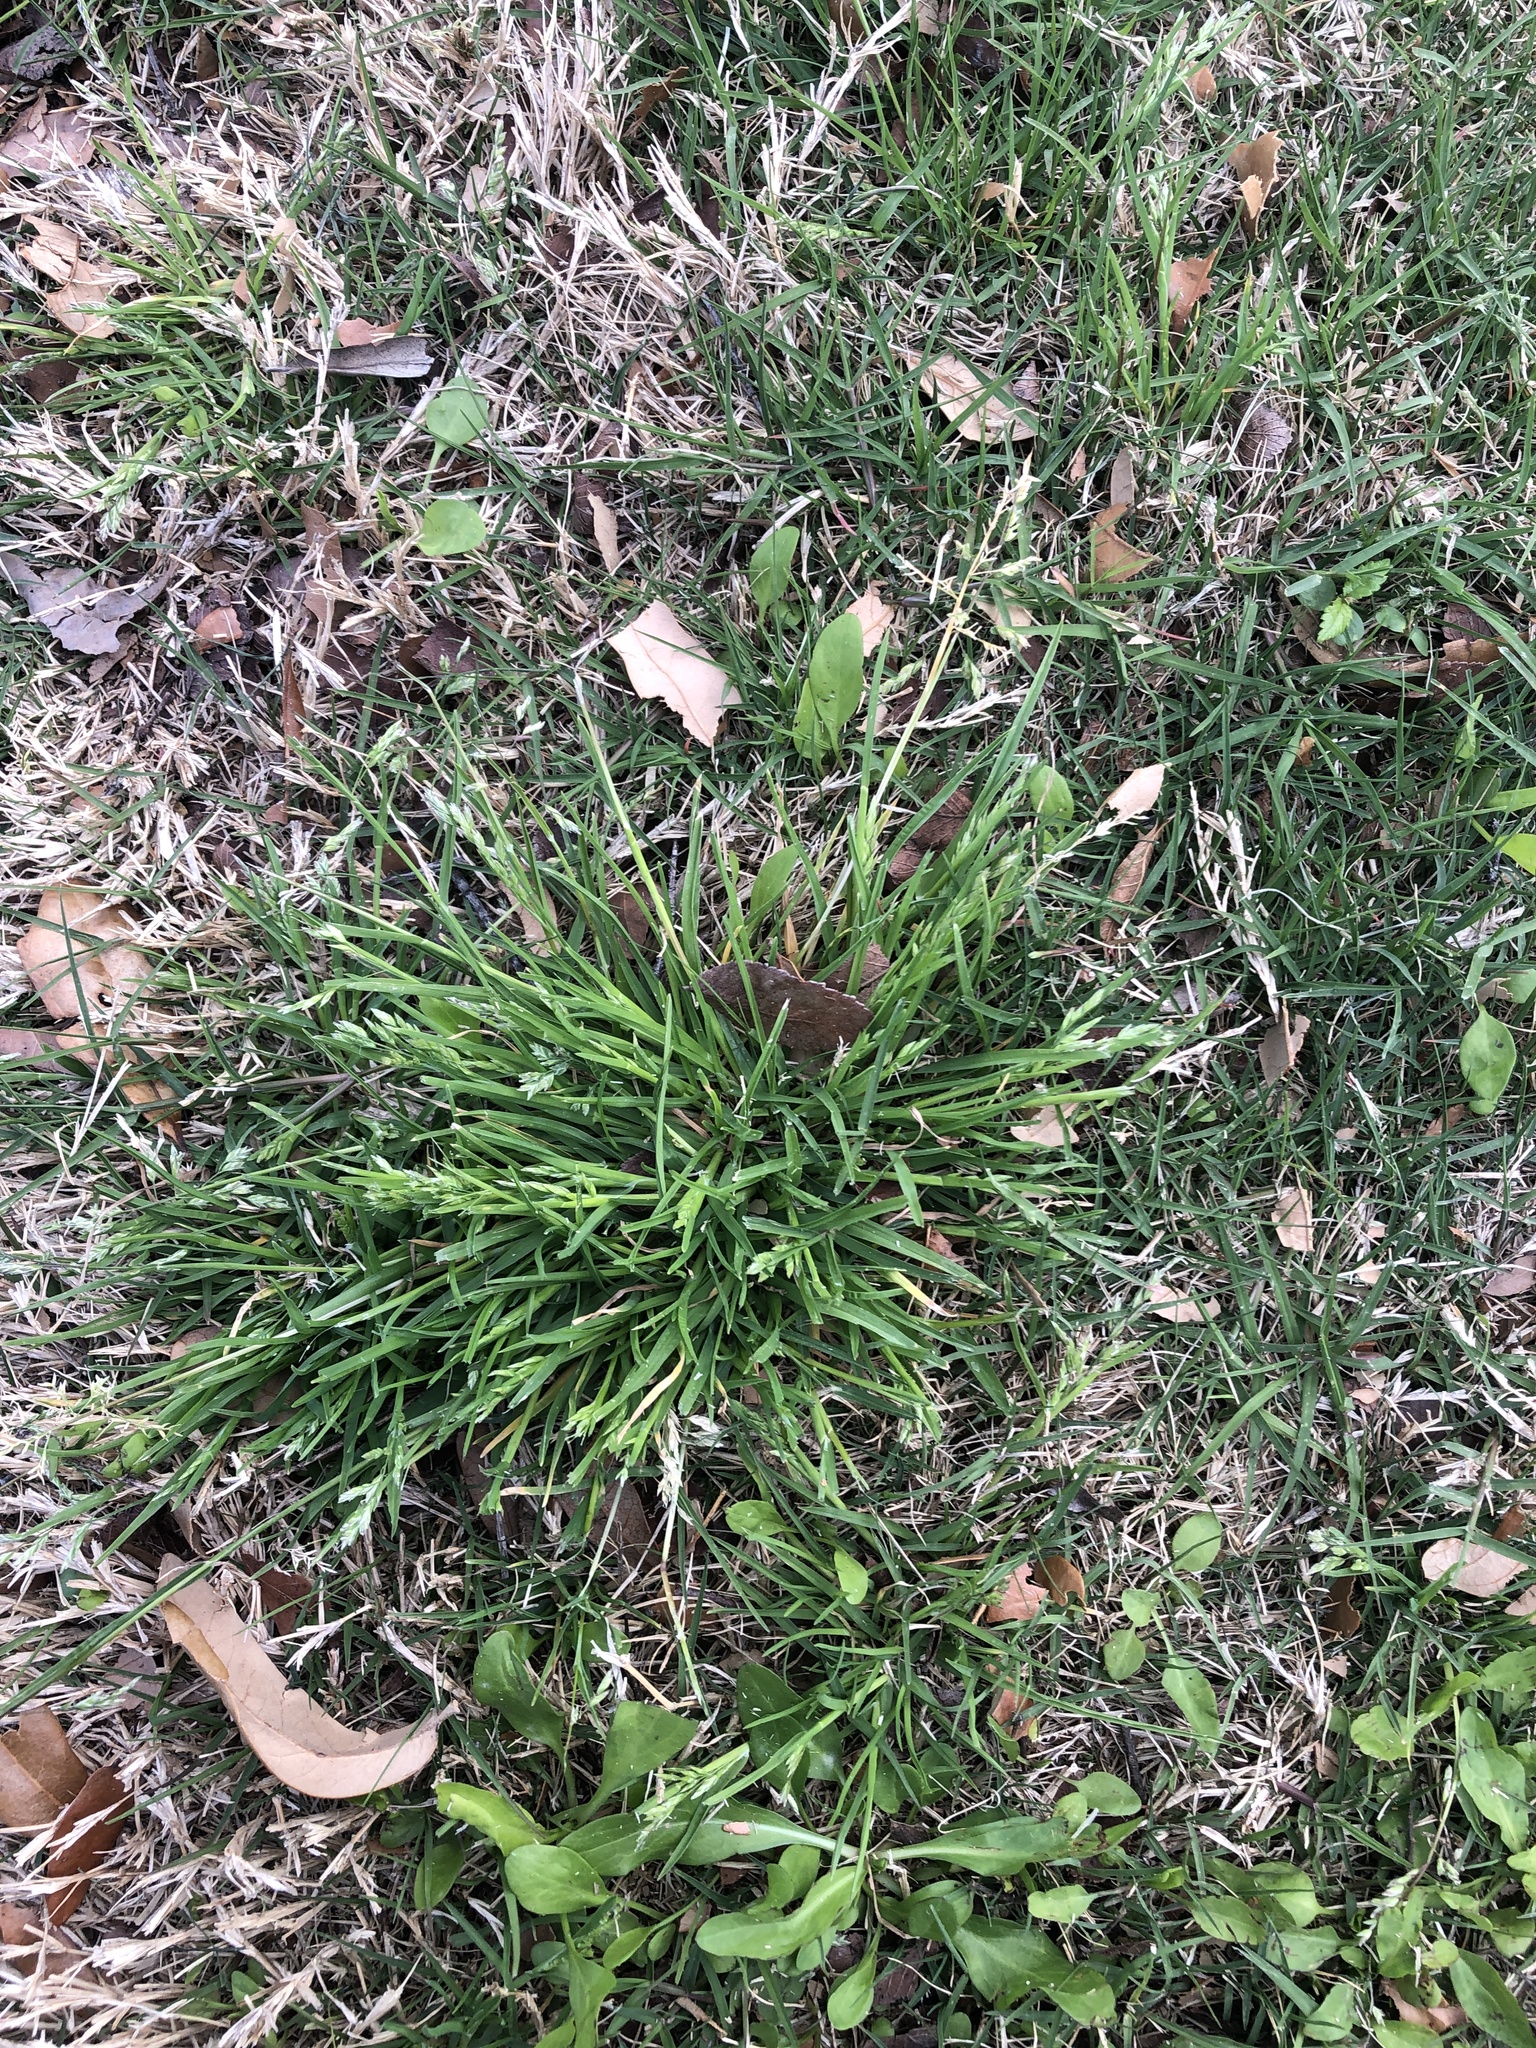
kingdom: Plantae
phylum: Tracheophyta
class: Liliopsida
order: Poales
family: Poaceae
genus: Poa
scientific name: Poa annua
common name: Annual bluegrass
